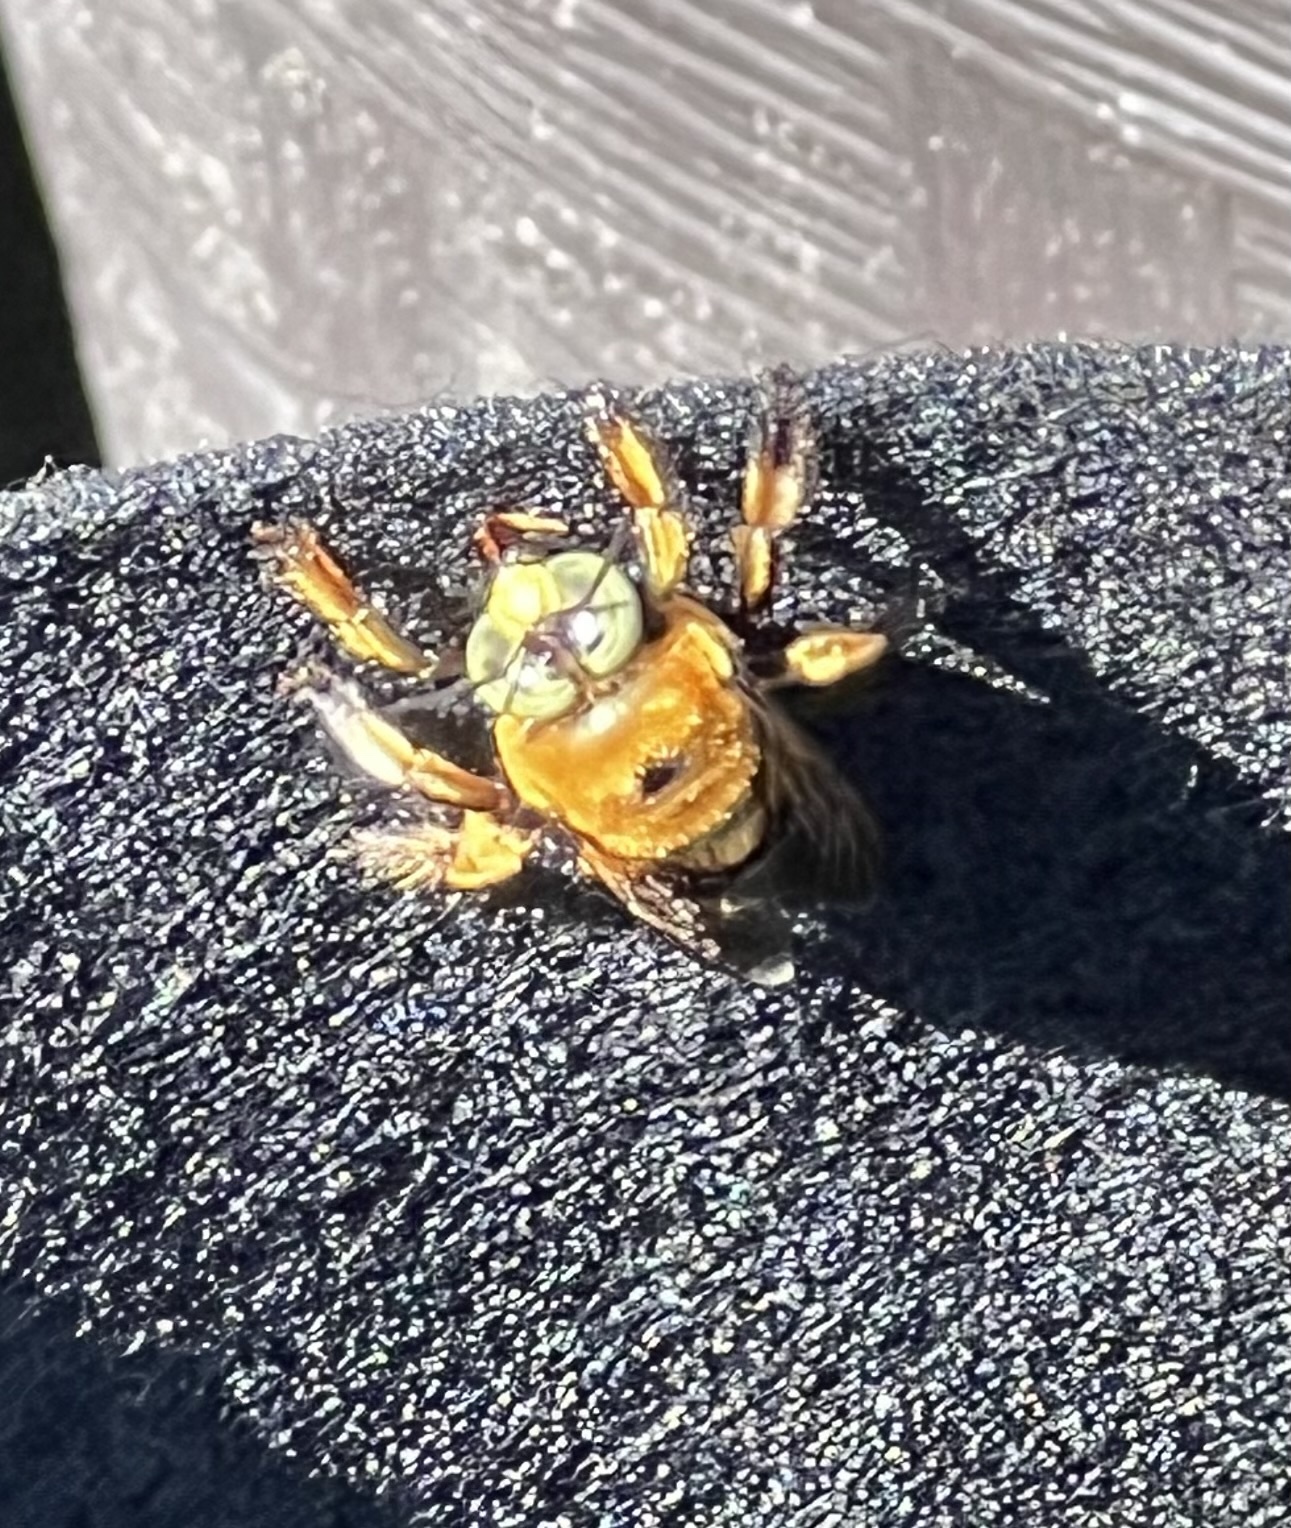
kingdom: Animalia
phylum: Arthropoda
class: Insecta
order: Hymenoptera
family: Apidae
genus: Xylocopa
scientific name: Xylocopa micans
